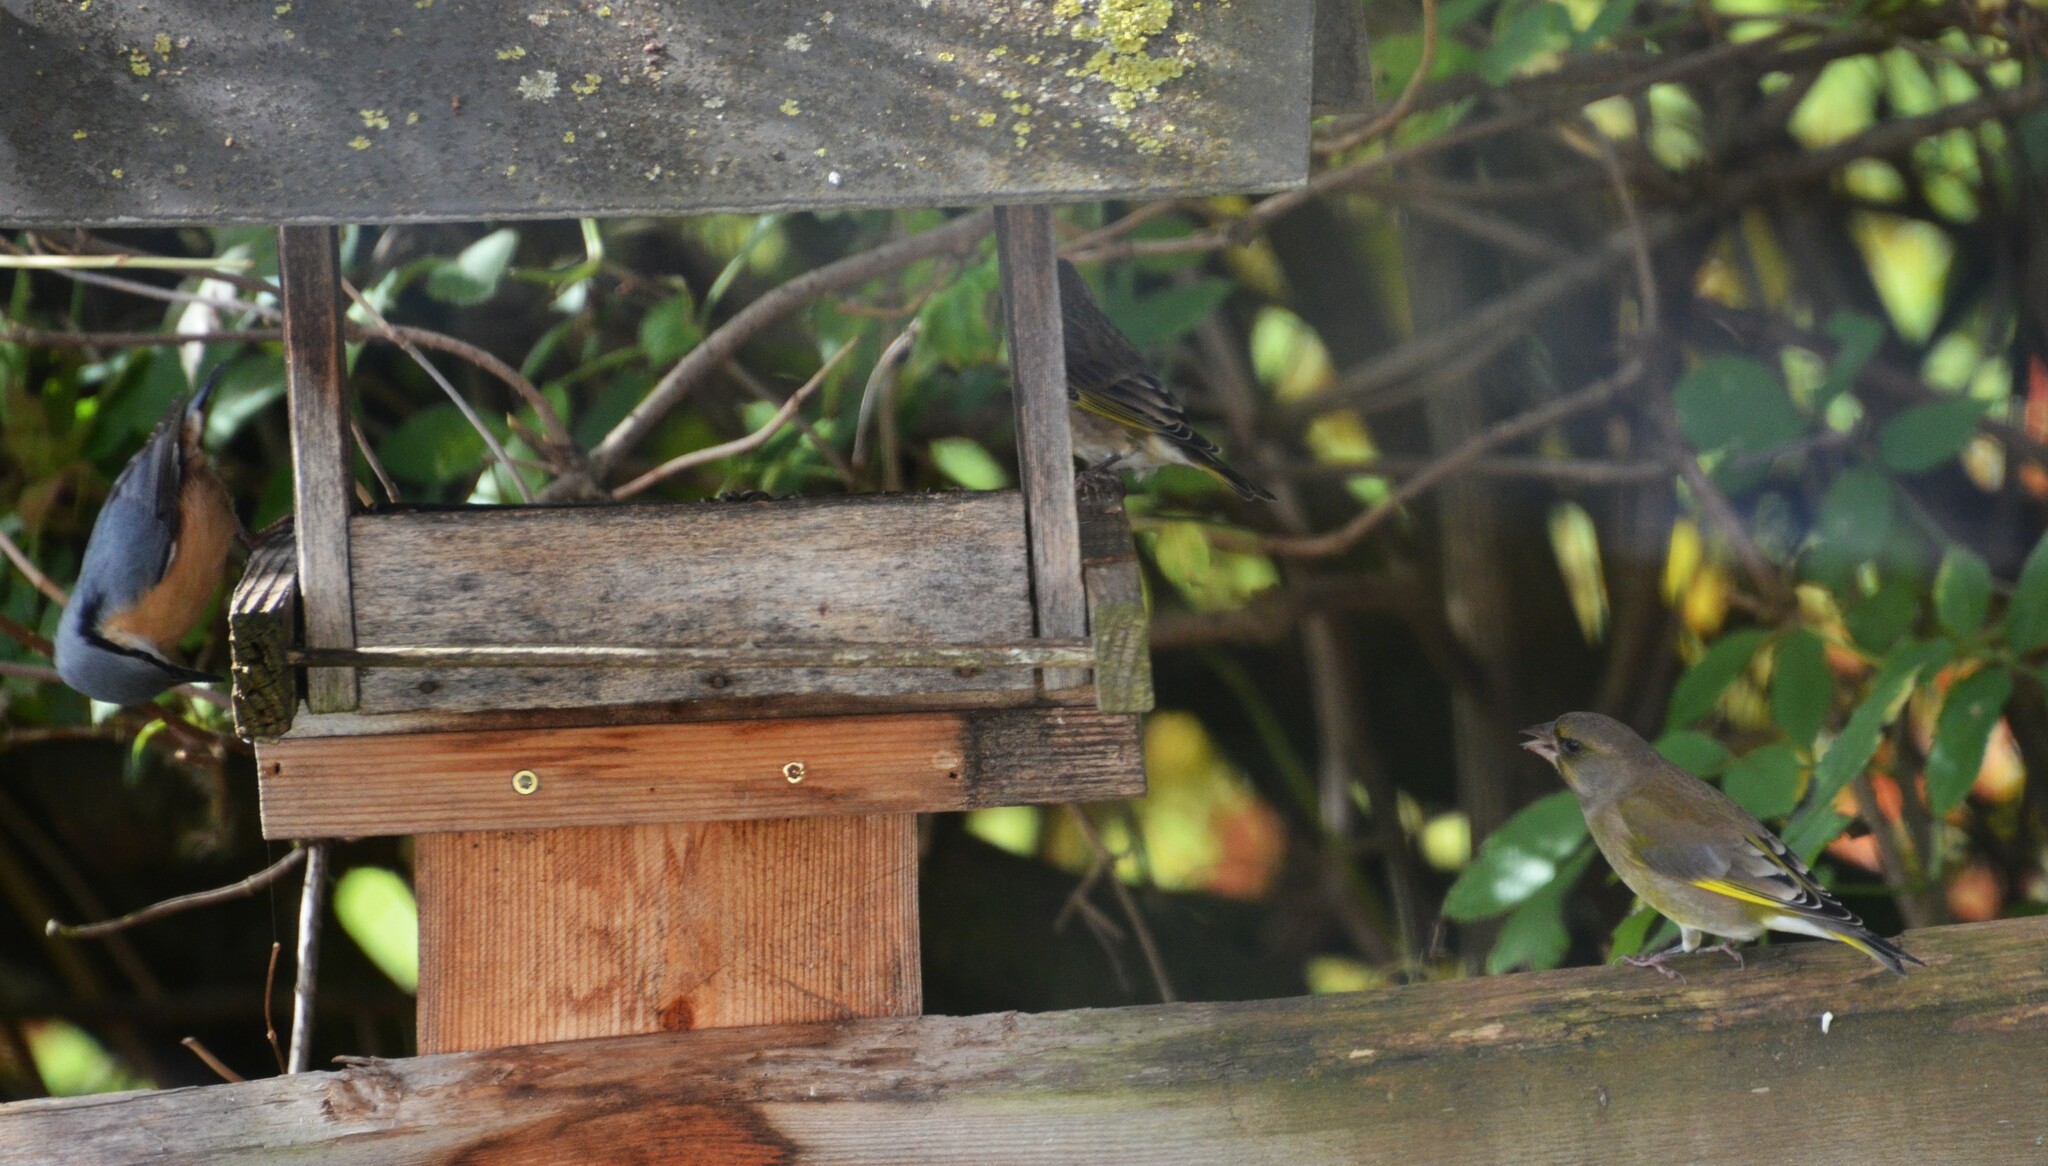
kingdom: Plantae
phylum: Tracheophyta
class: Liliopsida
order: Poales
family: Poaceae
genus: Chloris
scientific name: Chloris chloris
